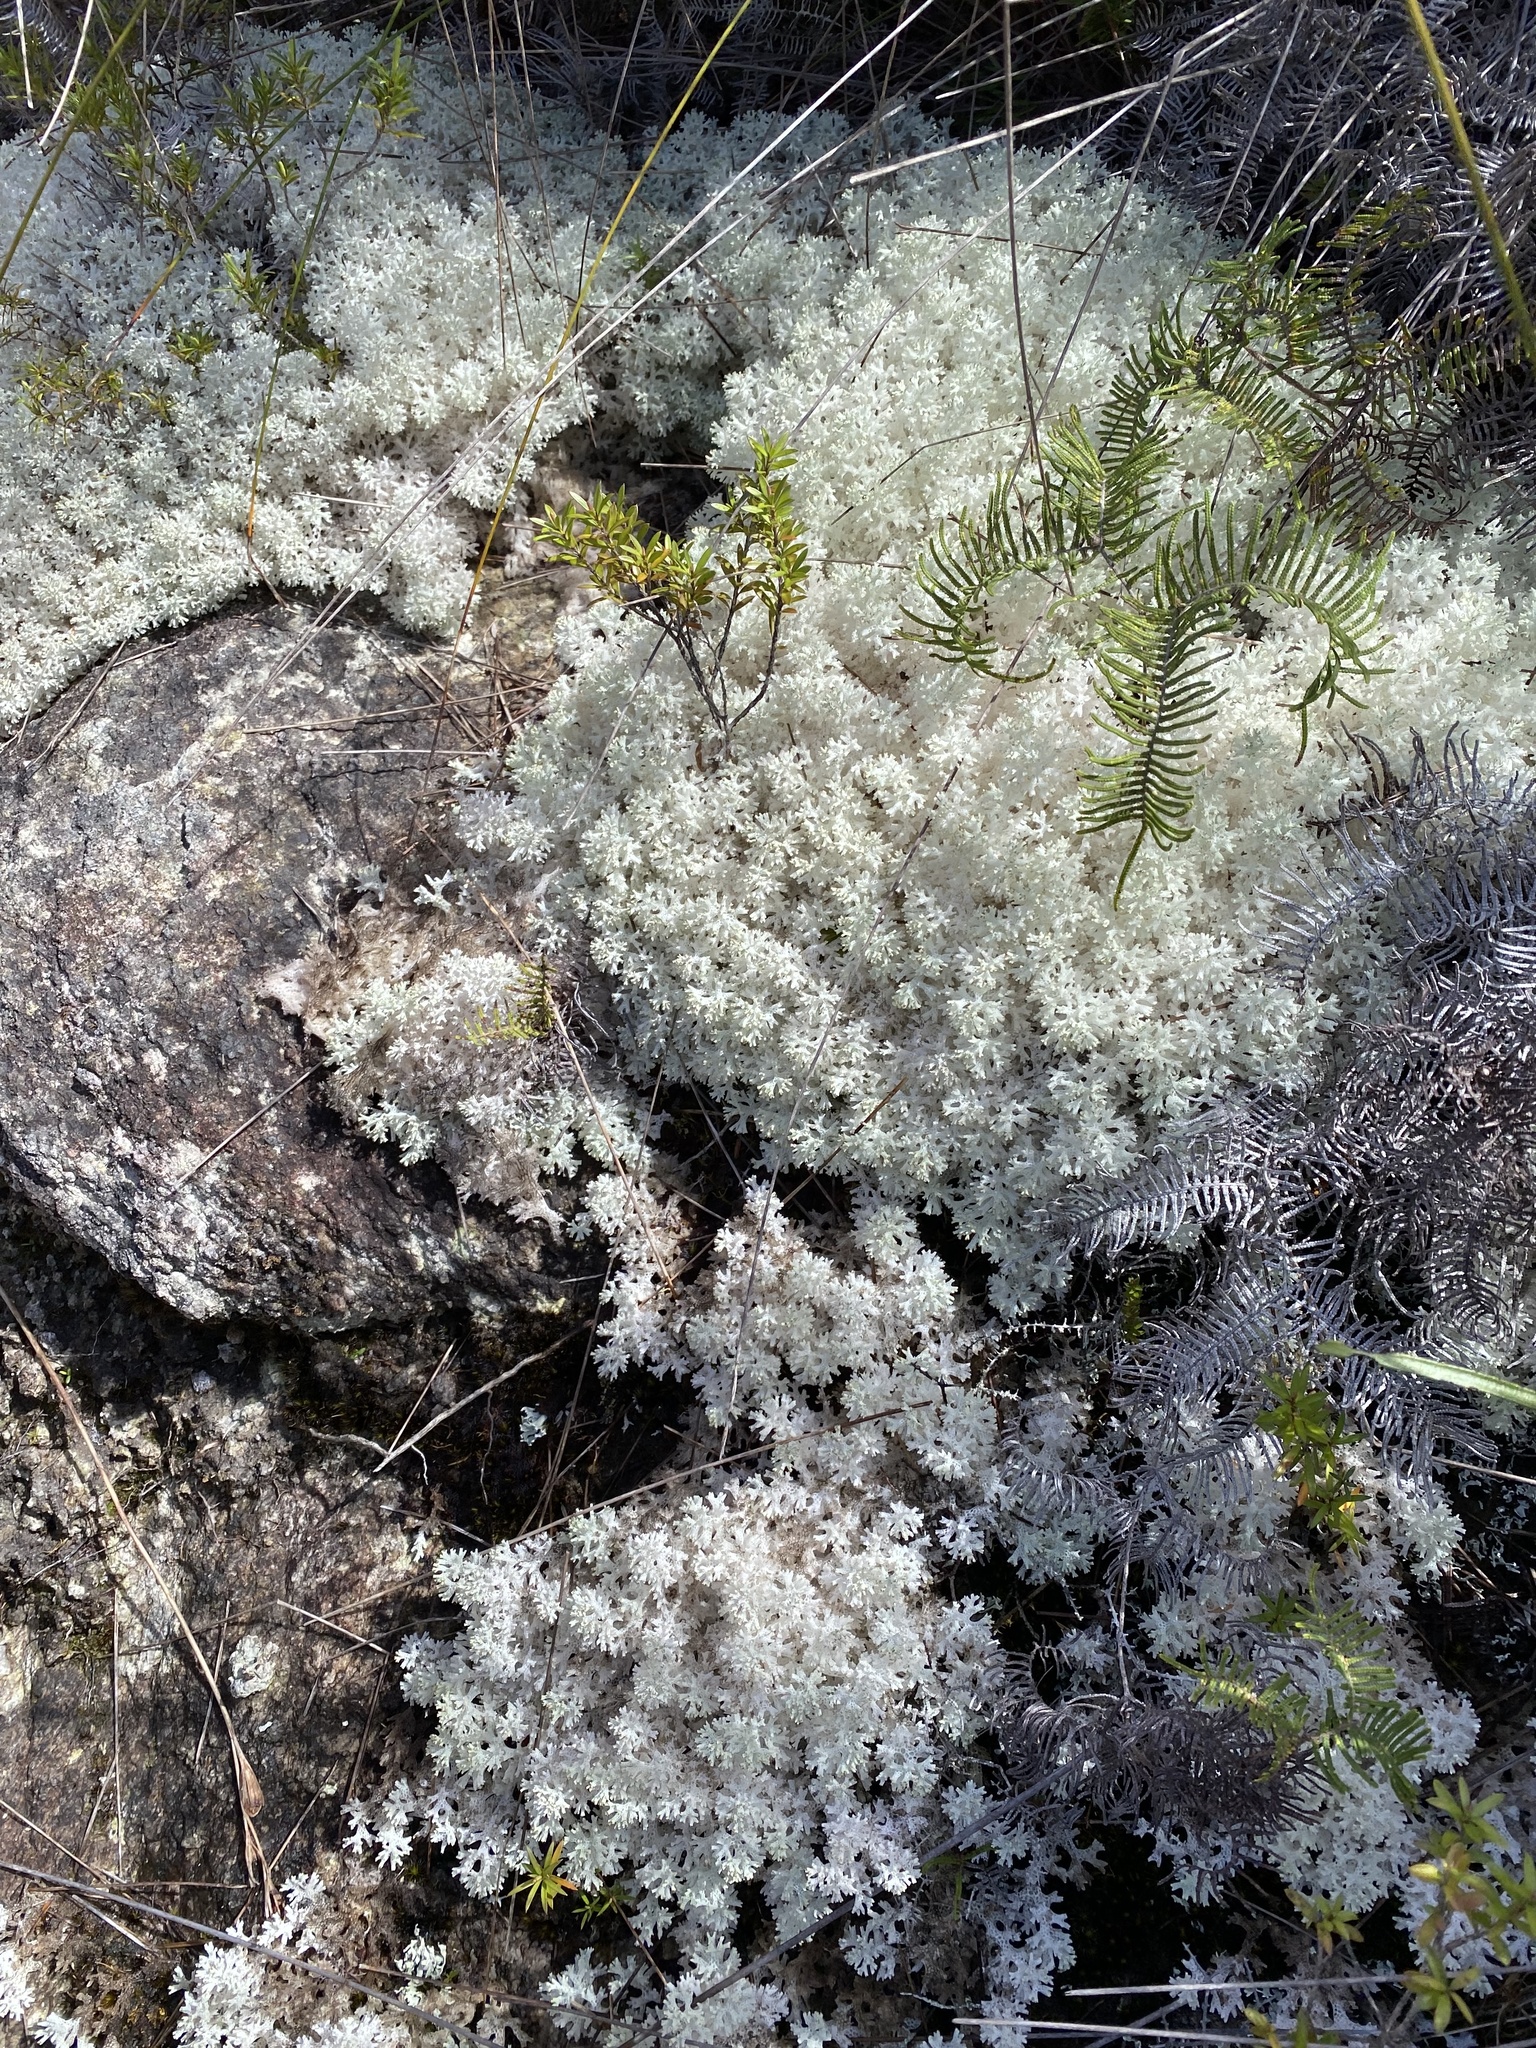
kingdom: Fungi
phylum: Ascomycota
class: Lecanoromycetes
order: Lecanorales
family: Cladoniaceae
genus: Pulchrocladia
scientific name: Pulchrocladia retipora
